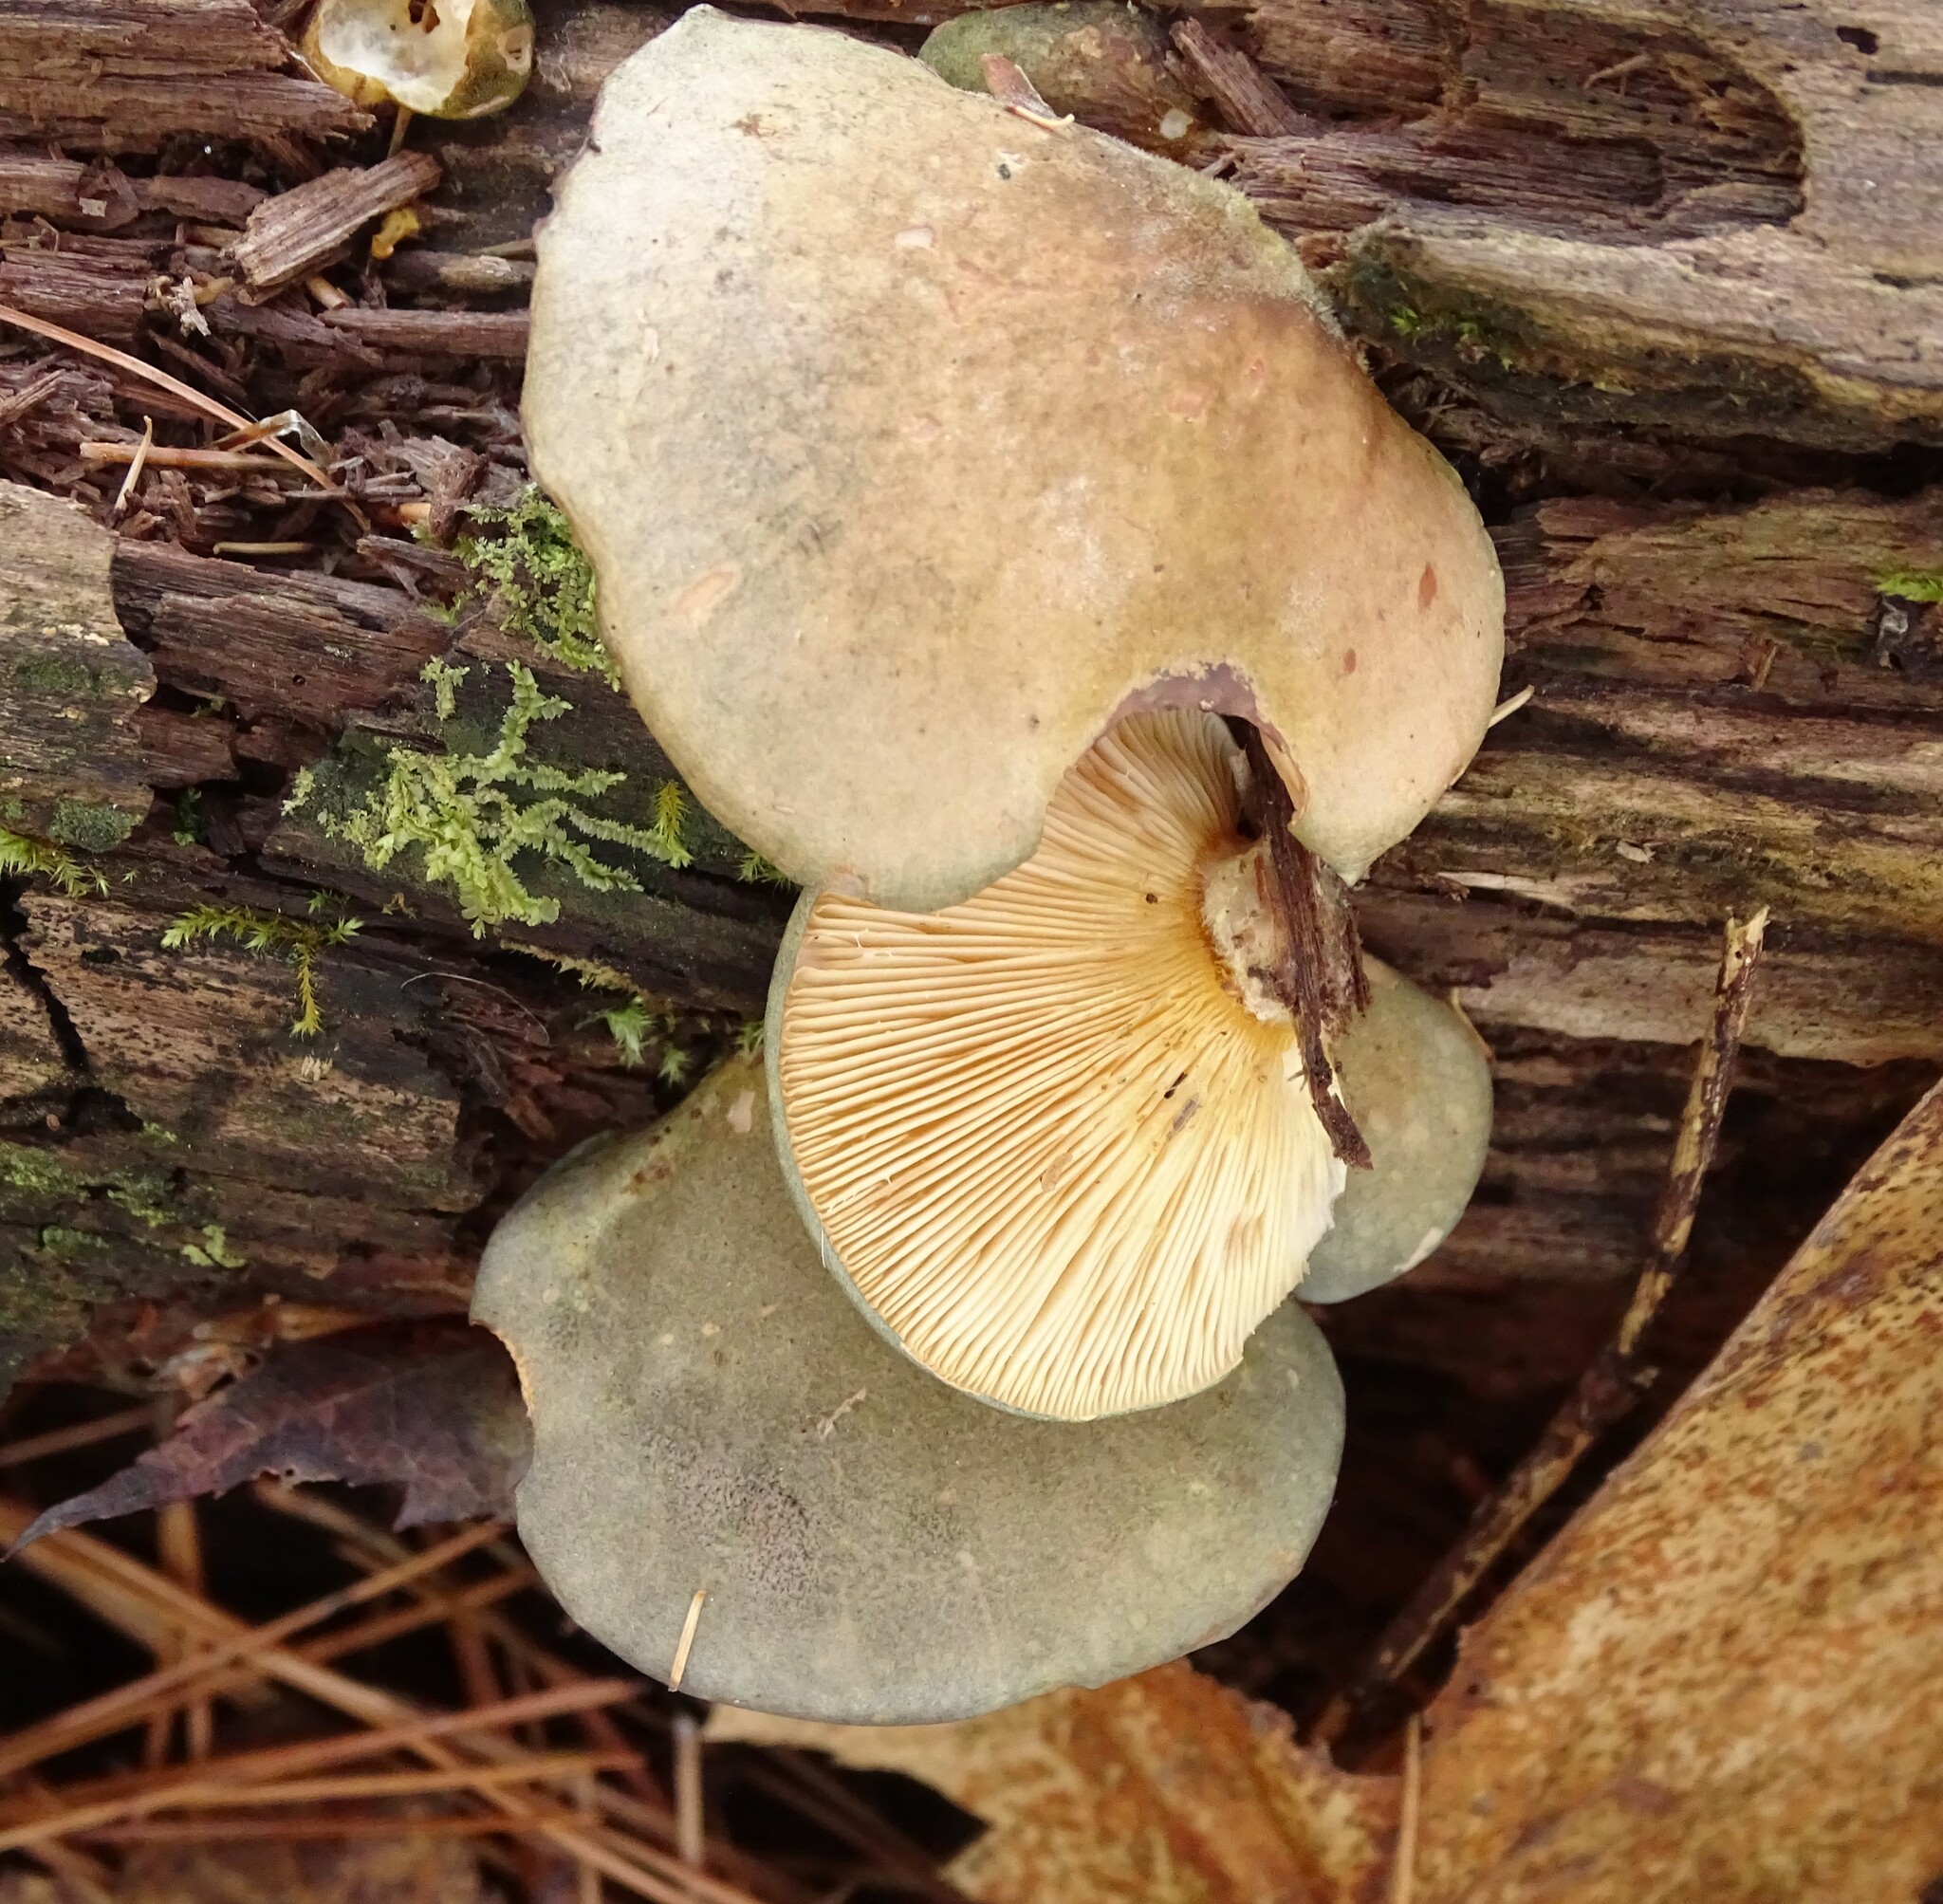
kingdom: Fungi
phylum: Basidiomycota
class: Agaricomycetes
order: Agaricales
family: Sarcomyxaceae
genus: Sarcomyxa
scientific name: Sarcomyxa serotina
